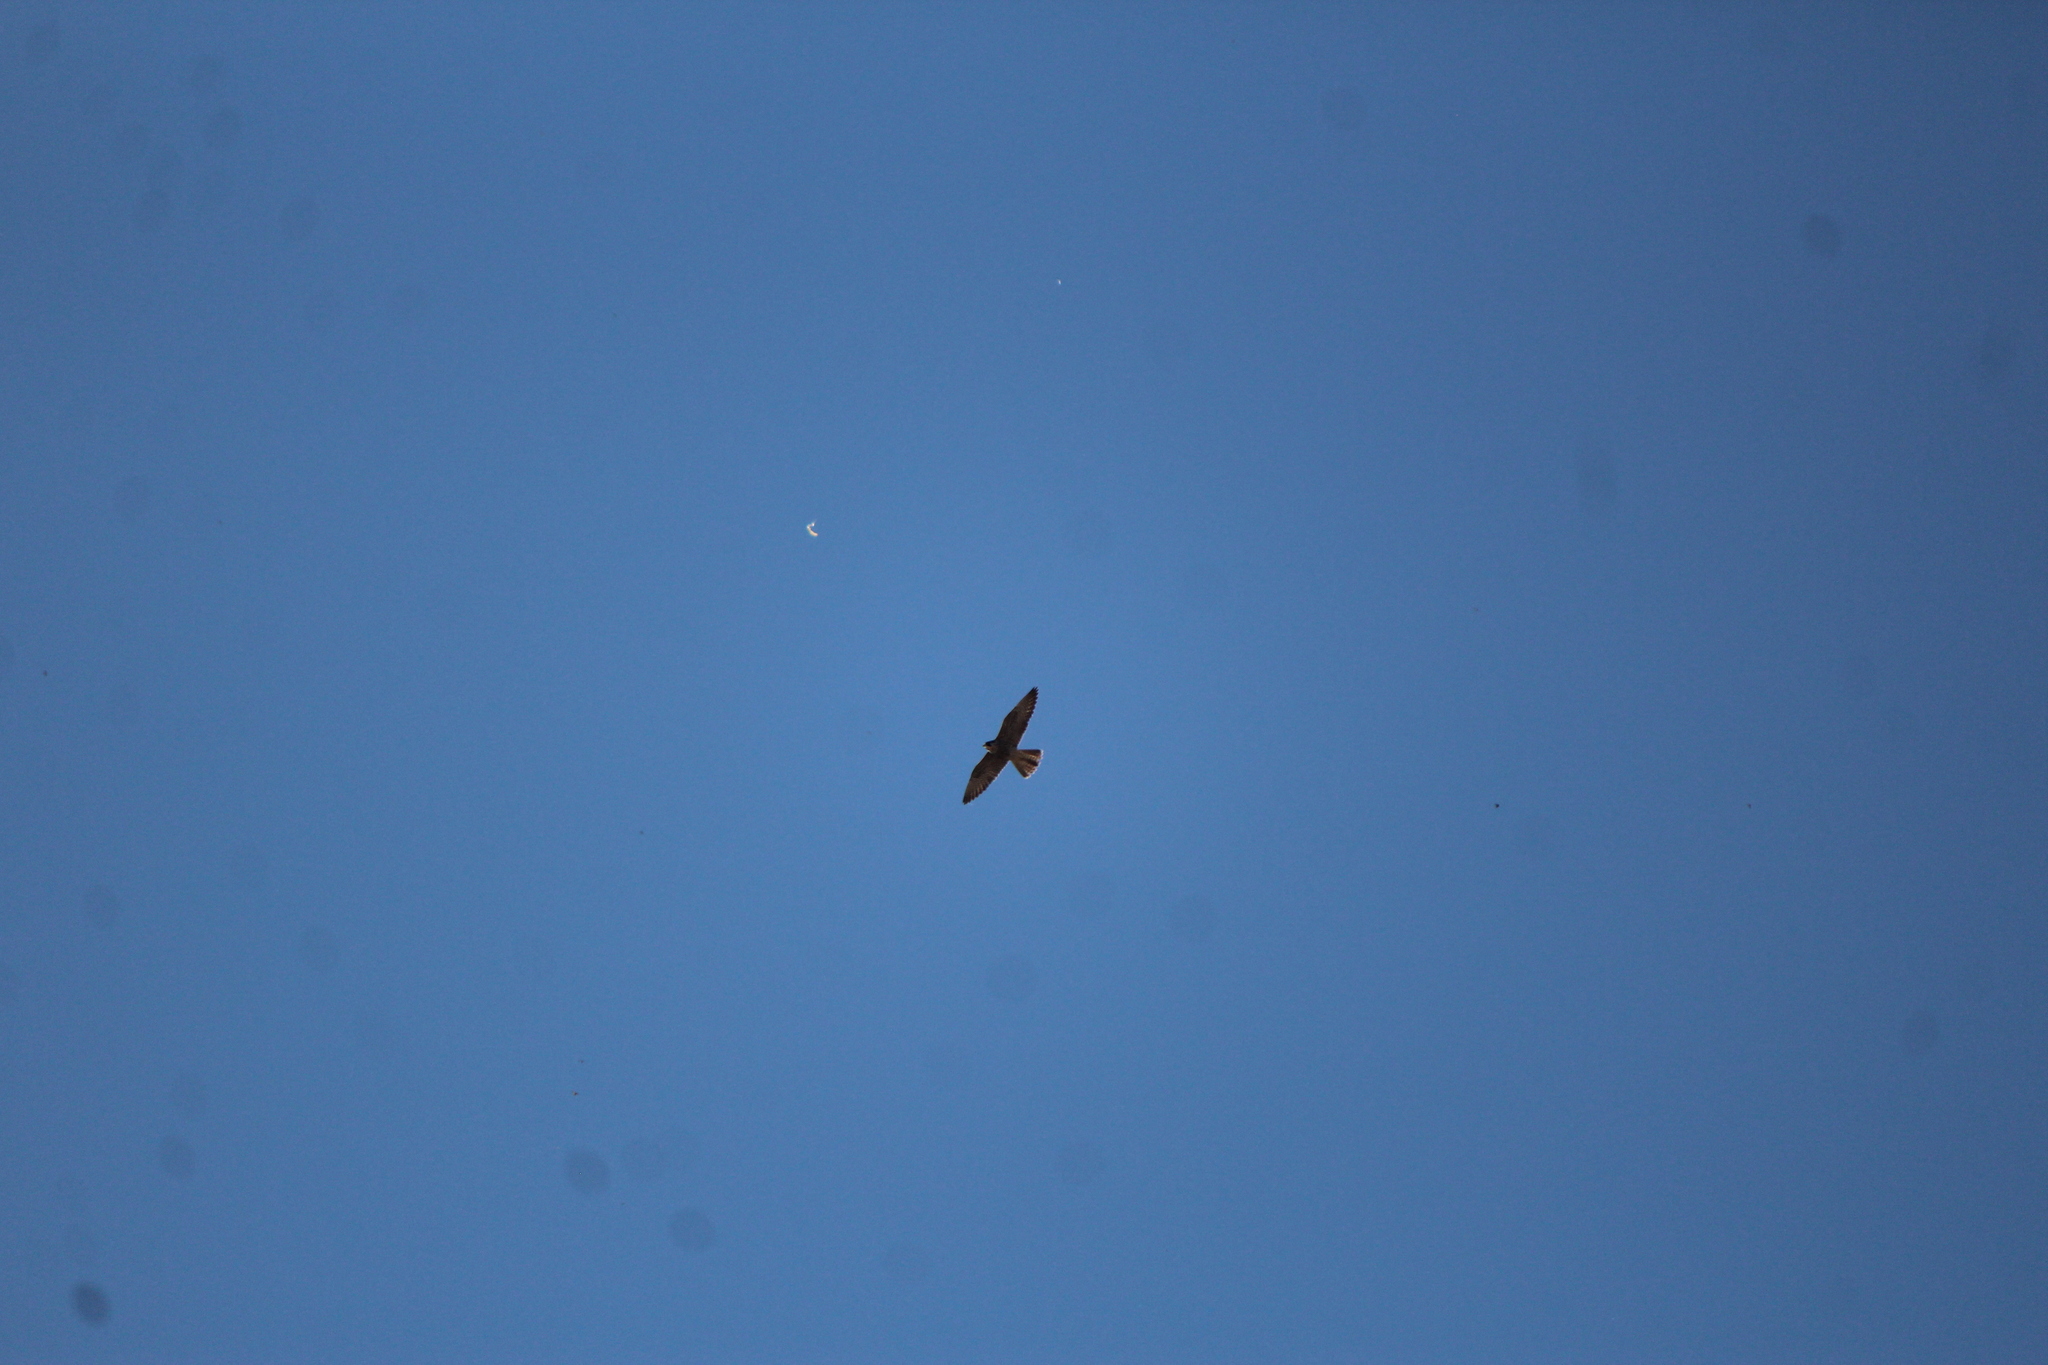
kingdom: Animalia
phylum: Chordata
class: Aves
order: Falconiformes
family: Falconidae
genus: Falco
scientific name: Falco peregrinus
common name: Peregrine falcon
